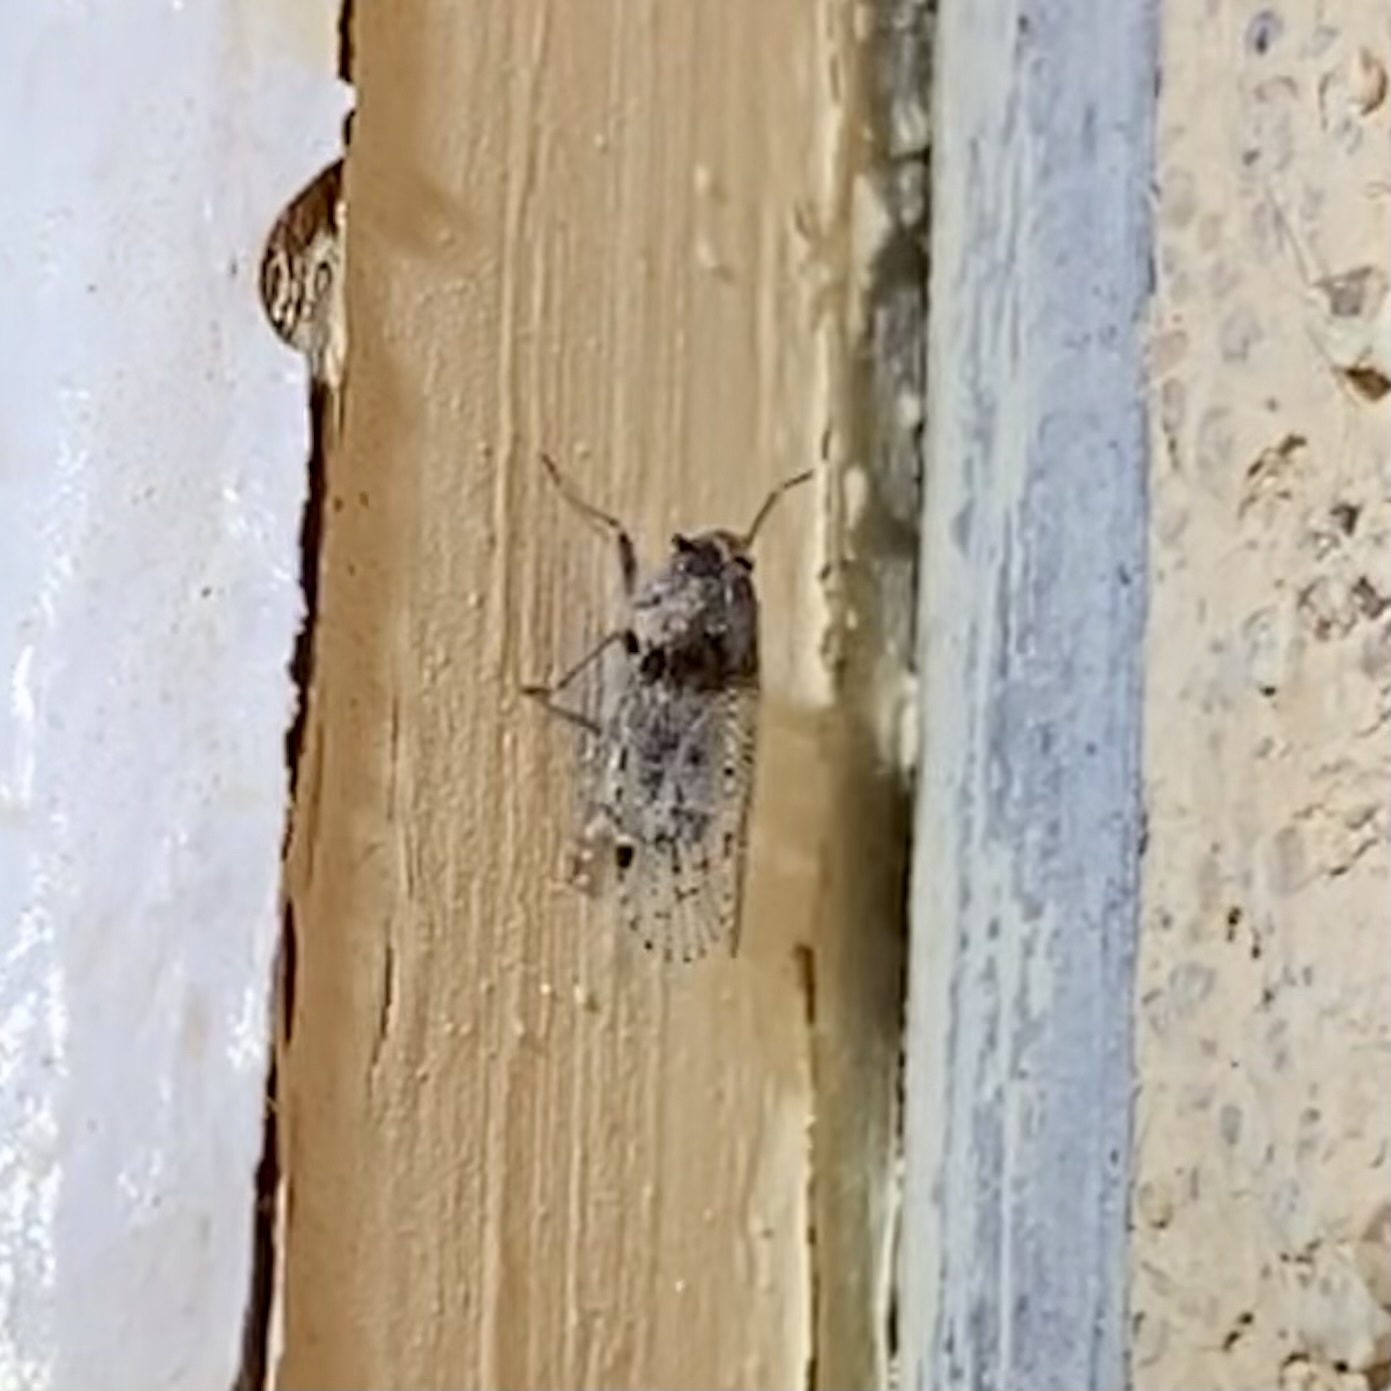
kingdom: Animalia
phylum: Arthropoda
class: Insecta
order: Hemiptera
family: Cixiidae
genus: Cixius
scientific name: Cixius
